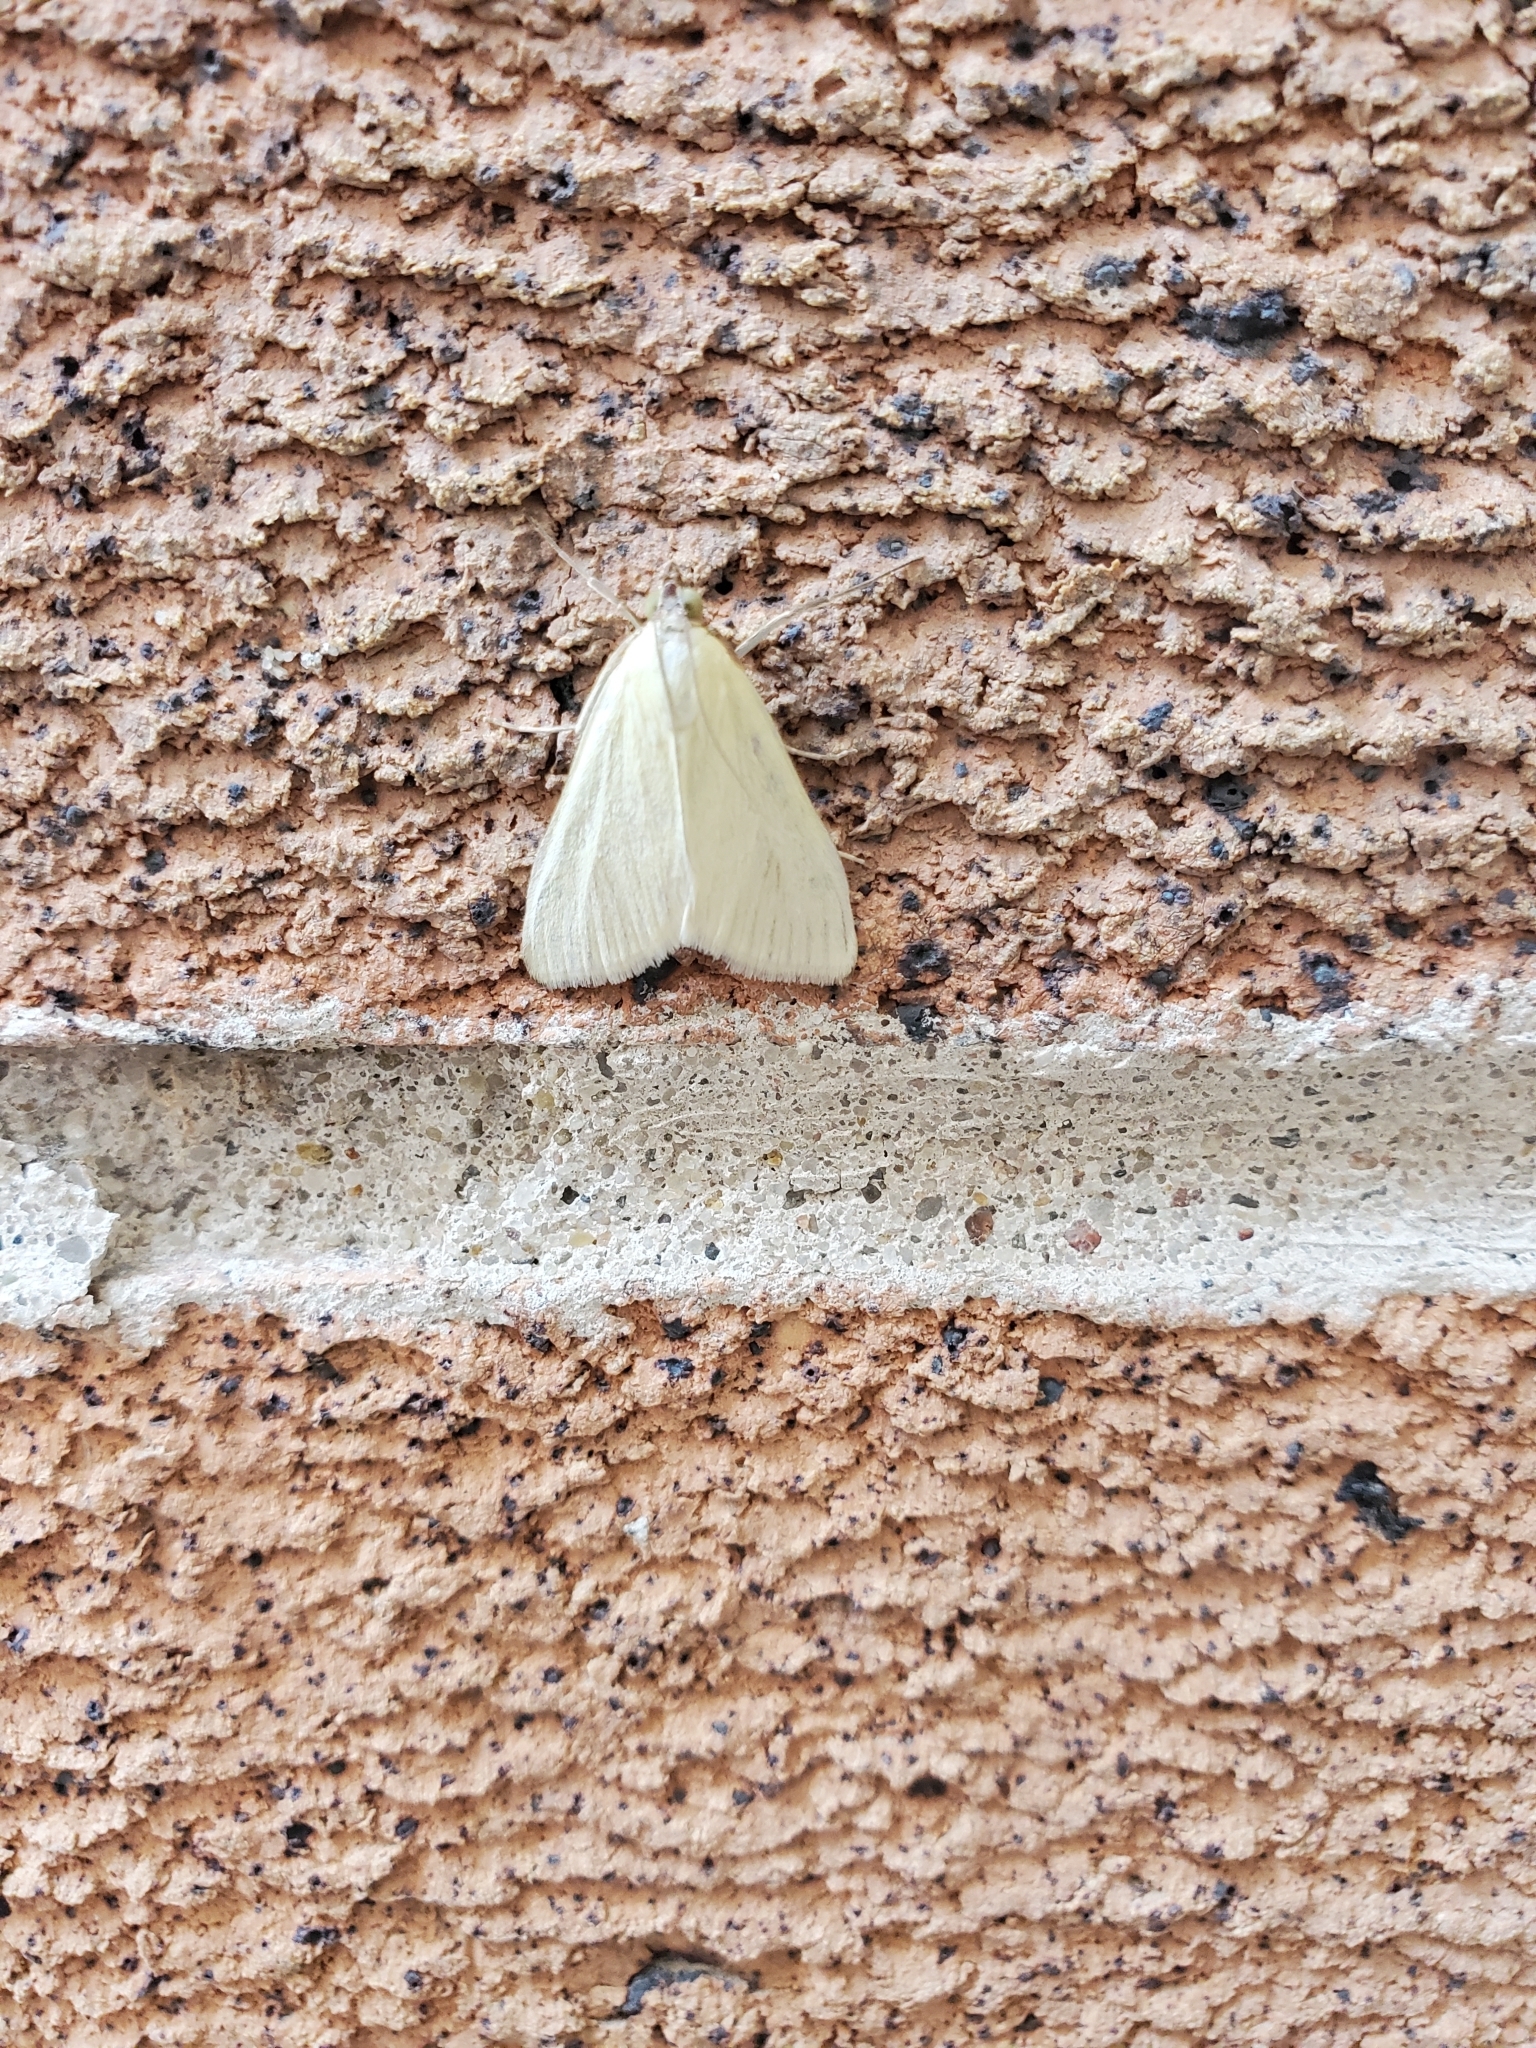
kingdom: Animalia
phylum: Arthropoda
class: Insecta
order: Lepidoptera
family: Crambidae
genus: Sitochroa
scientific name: Sitochroa palealis
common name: Greenish-yellow sitochroa moth
